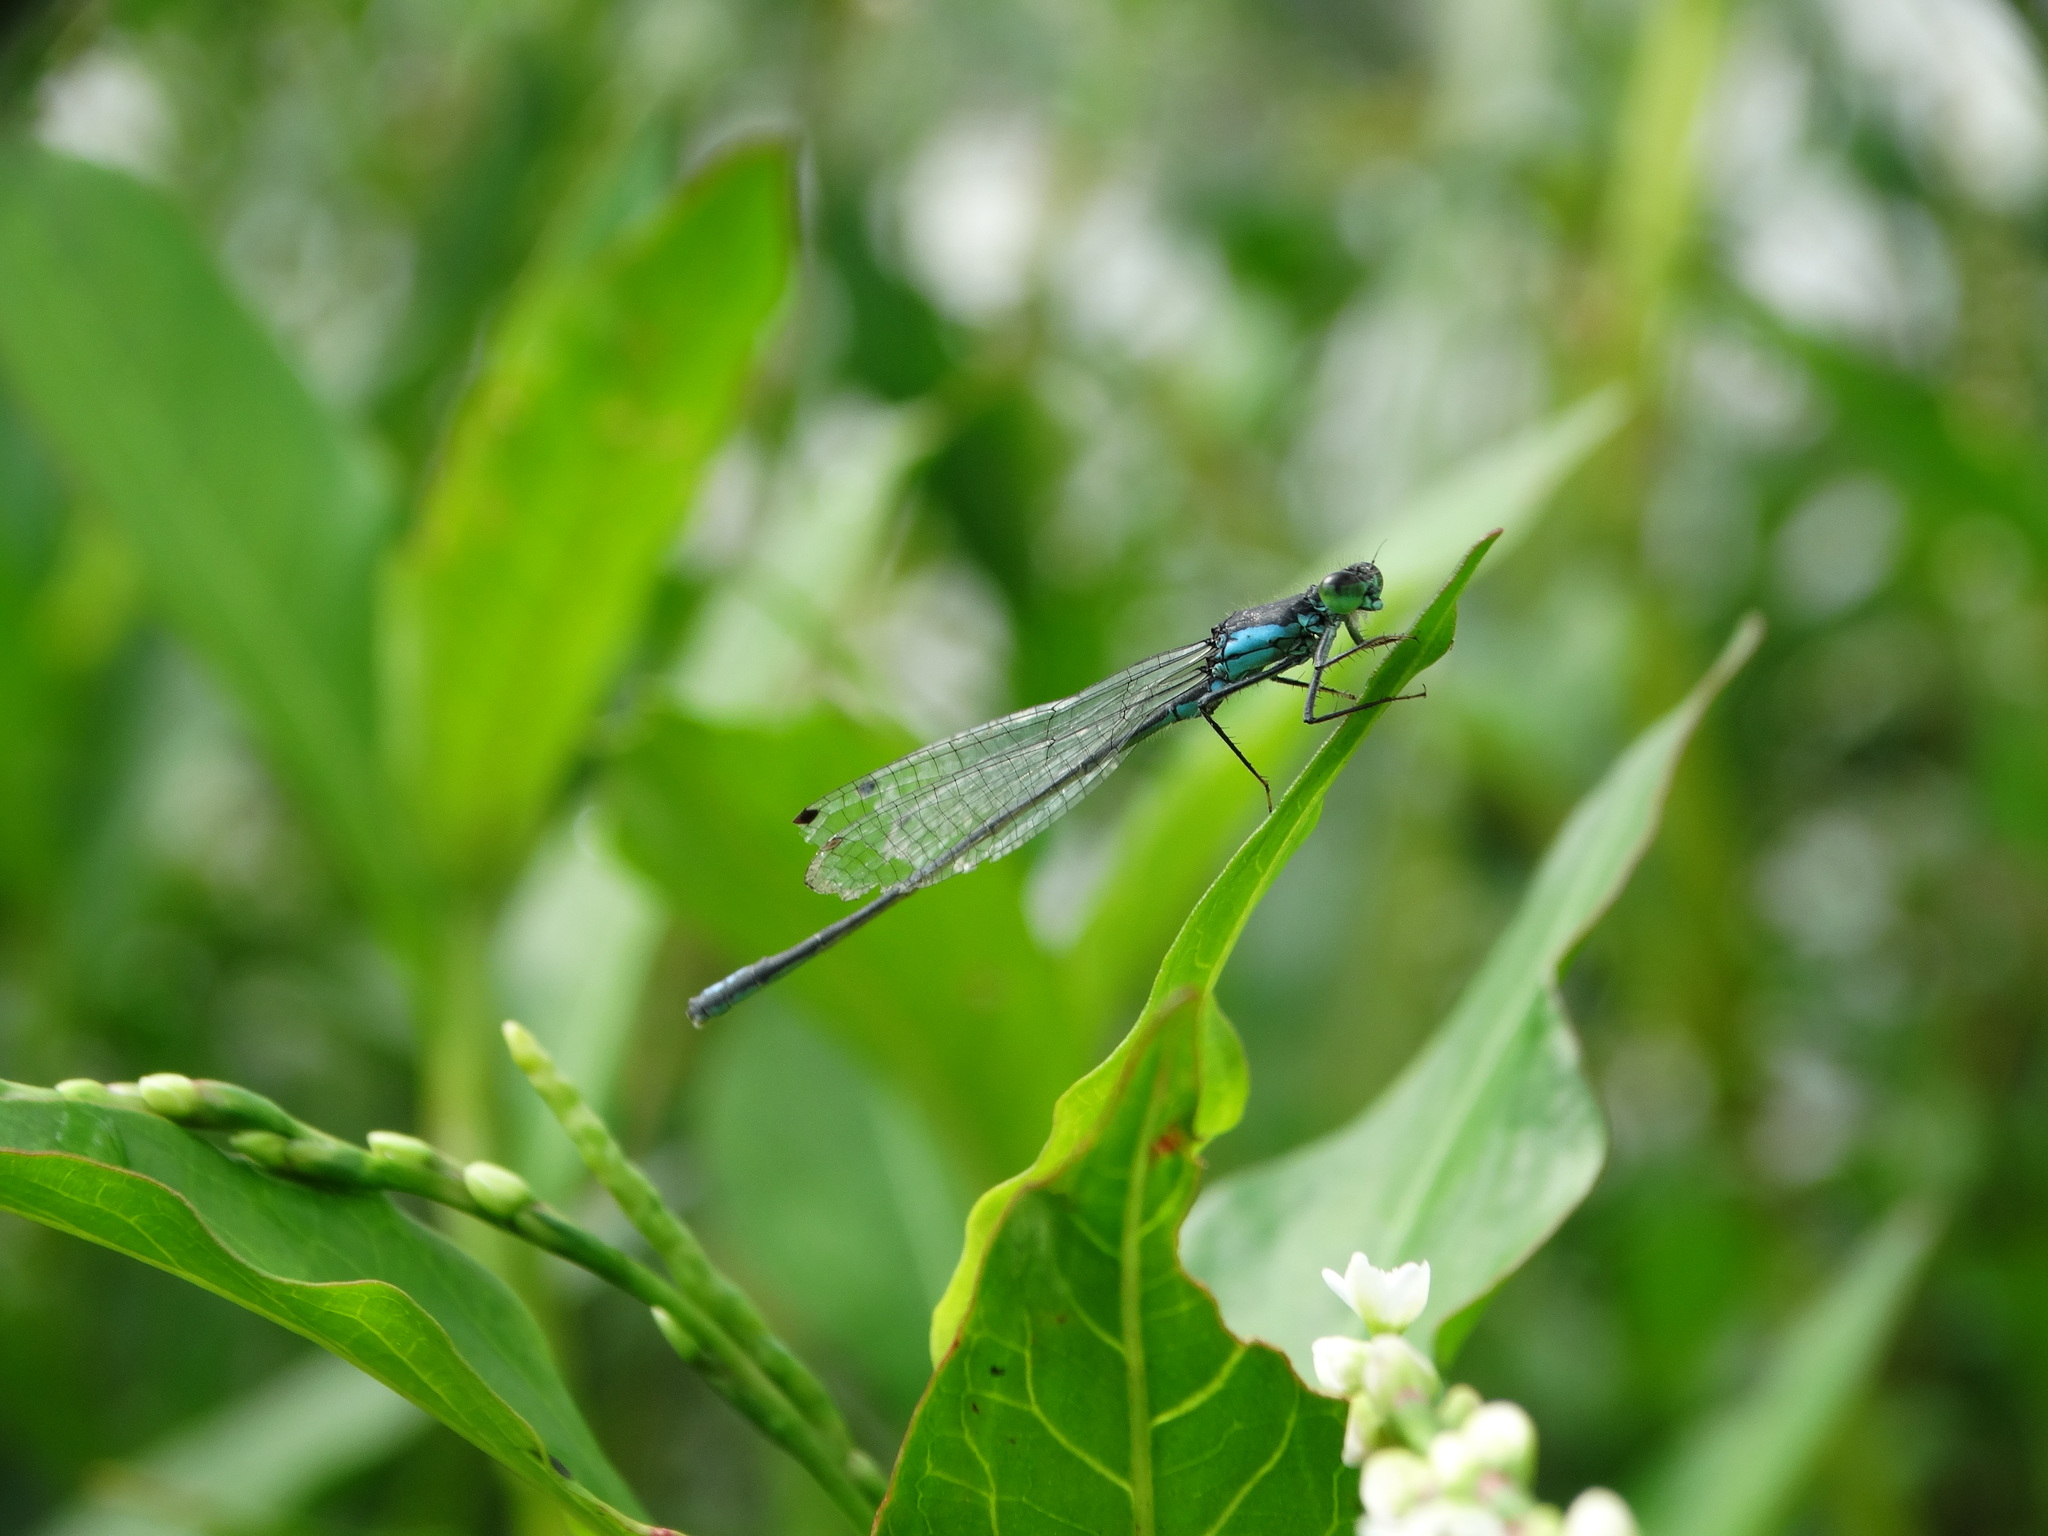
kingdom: Animalia
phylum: Arthropoda
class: Insecta
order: Odonata
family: Coenagrionidae
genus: Ischnura
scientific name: Ischnura denticollis
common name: Black-fronted forktail
